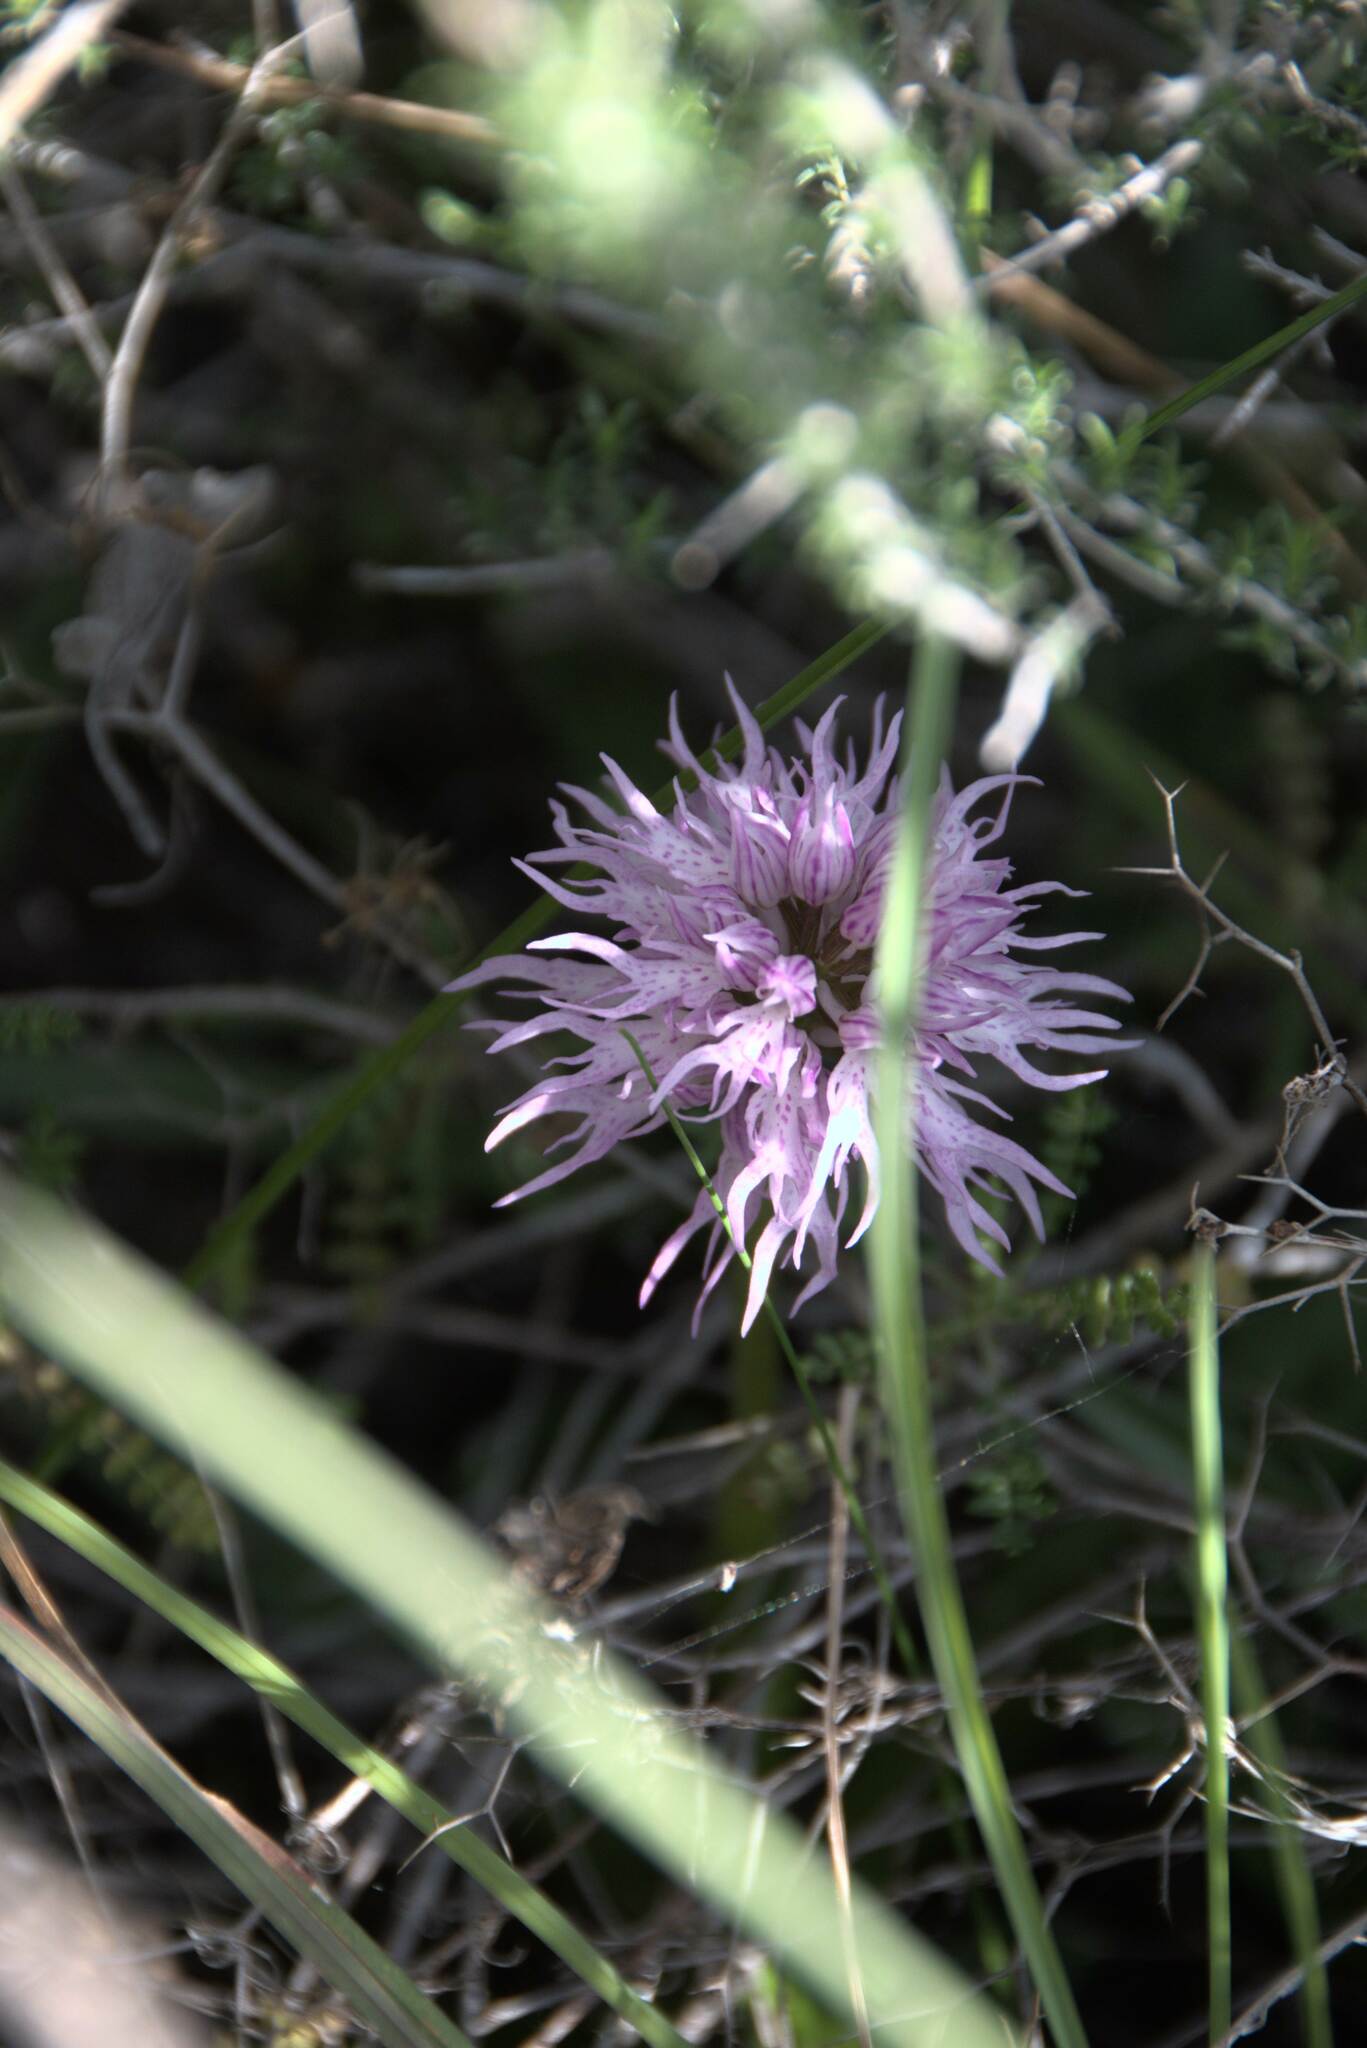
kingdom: Plantae
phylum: Tracheophyta
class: Liliopsida
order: Asparagales
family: Orchidaceae
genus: Orchis
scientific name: Orchis italica
